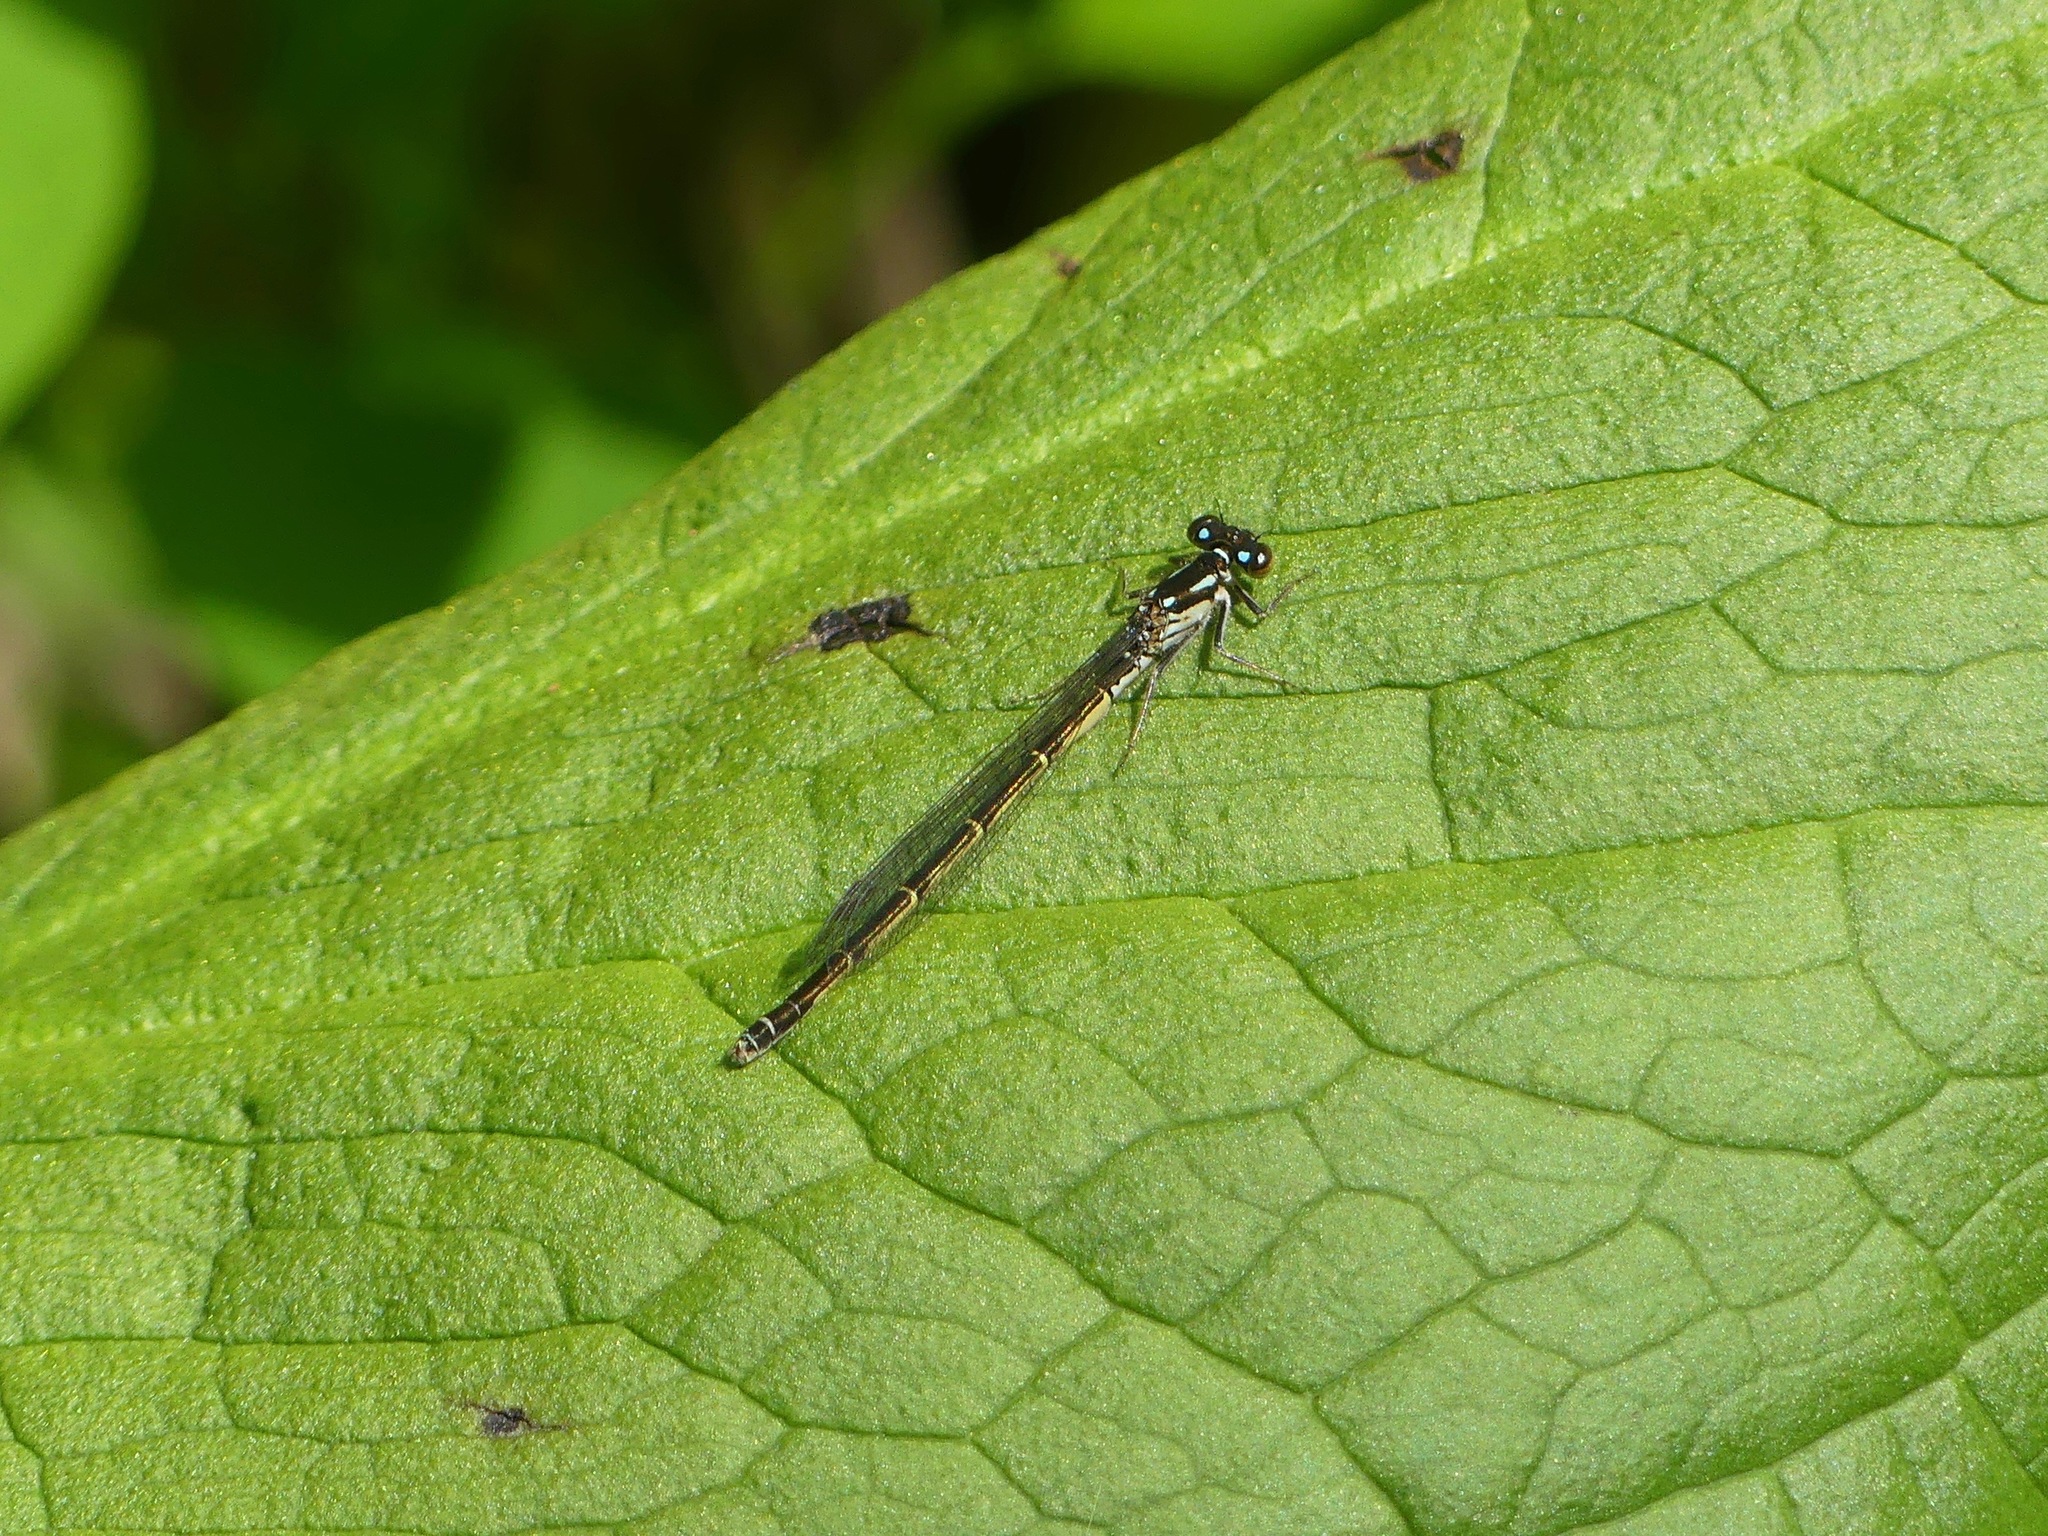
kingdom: Animalia
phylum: Arthropoda
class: Insecta
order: Odonata
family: Coenagrionidae
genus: Ischnura
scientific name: Ischnura posita
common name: Fragile forktail
